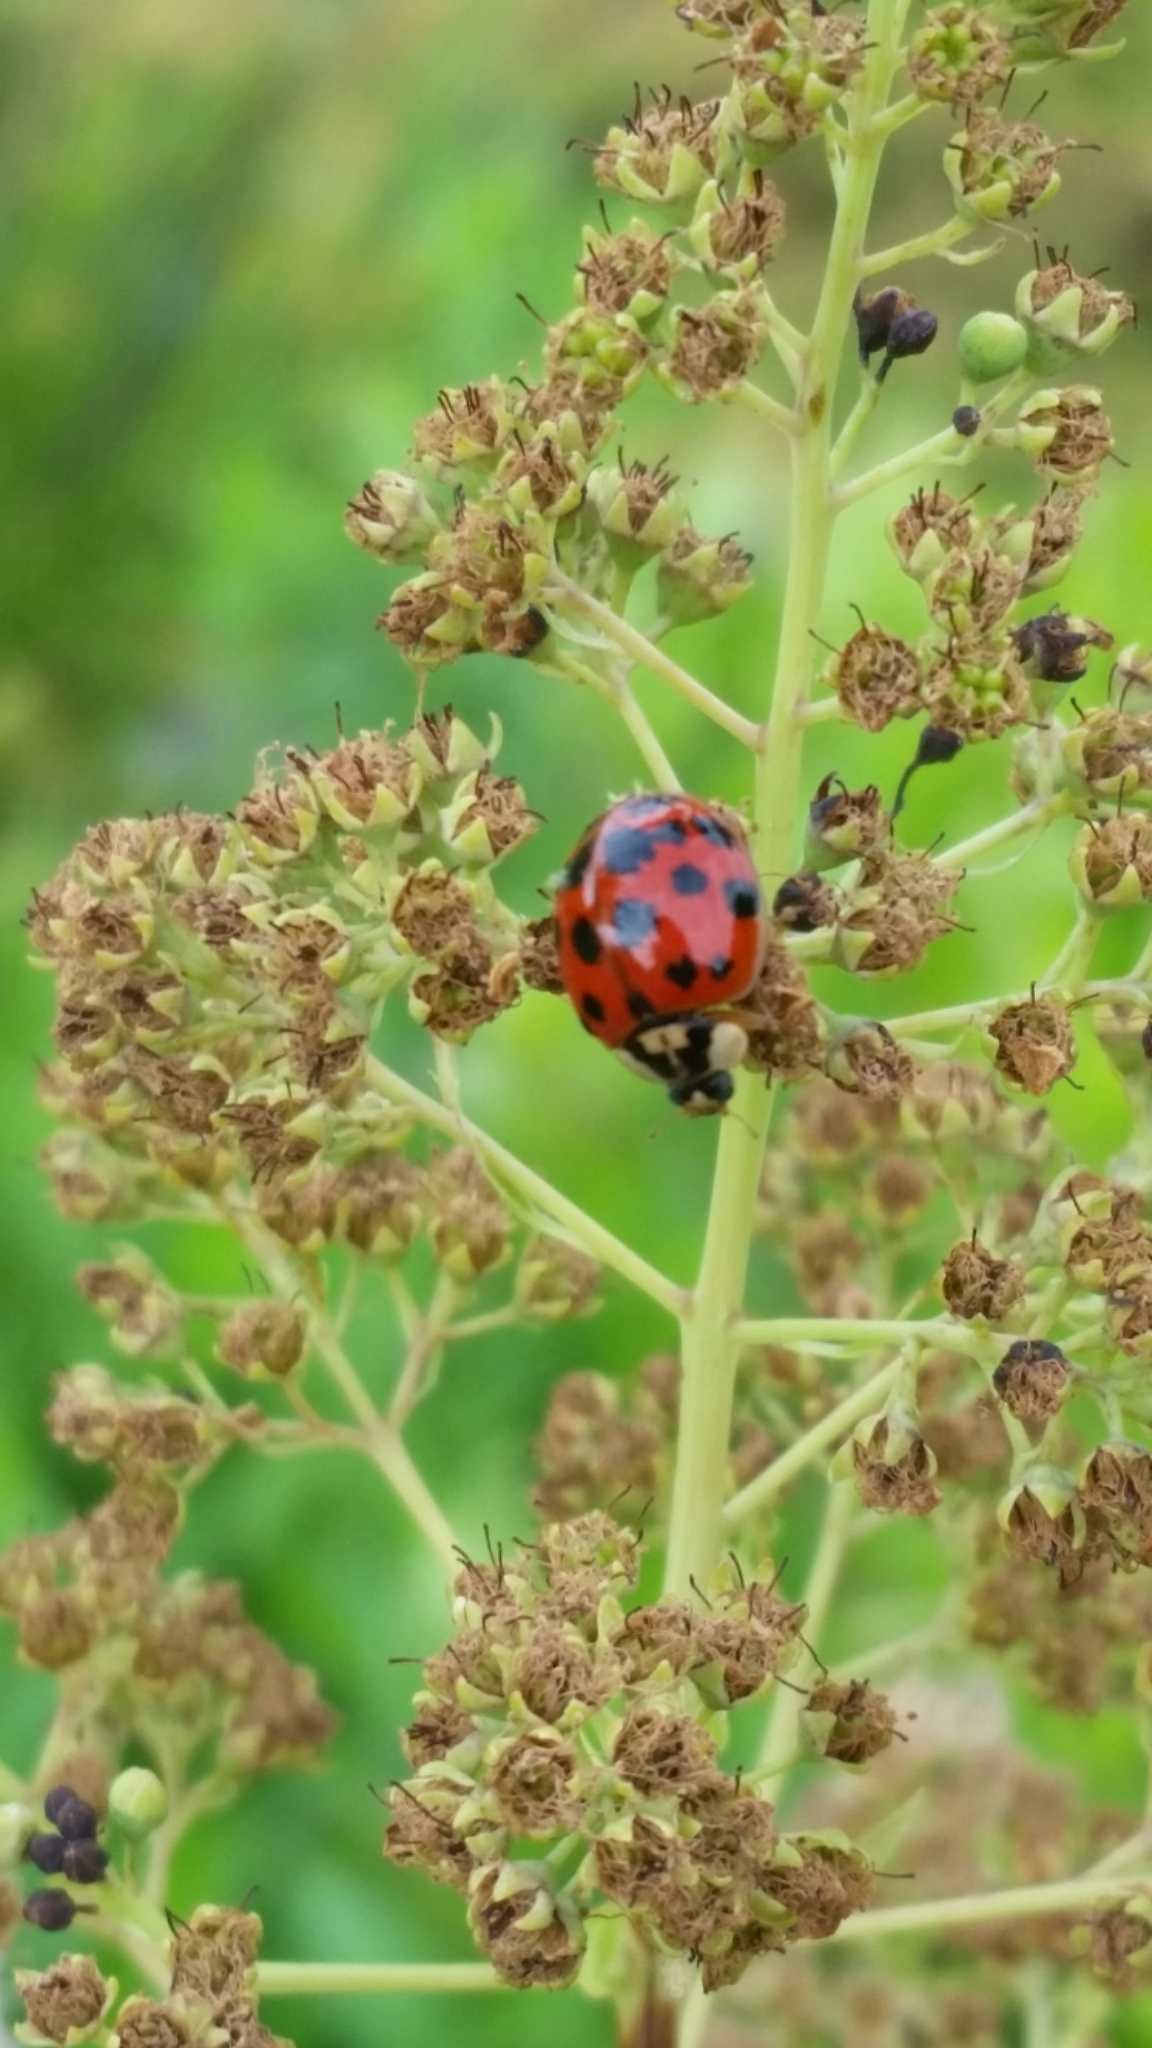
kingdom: Animalia
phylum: Arthropoda
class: Insecta
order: Coleoptera
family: Coccinellidae
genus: Harmonia
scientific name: Harmonia axyridis
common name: Harlequin ladybird
